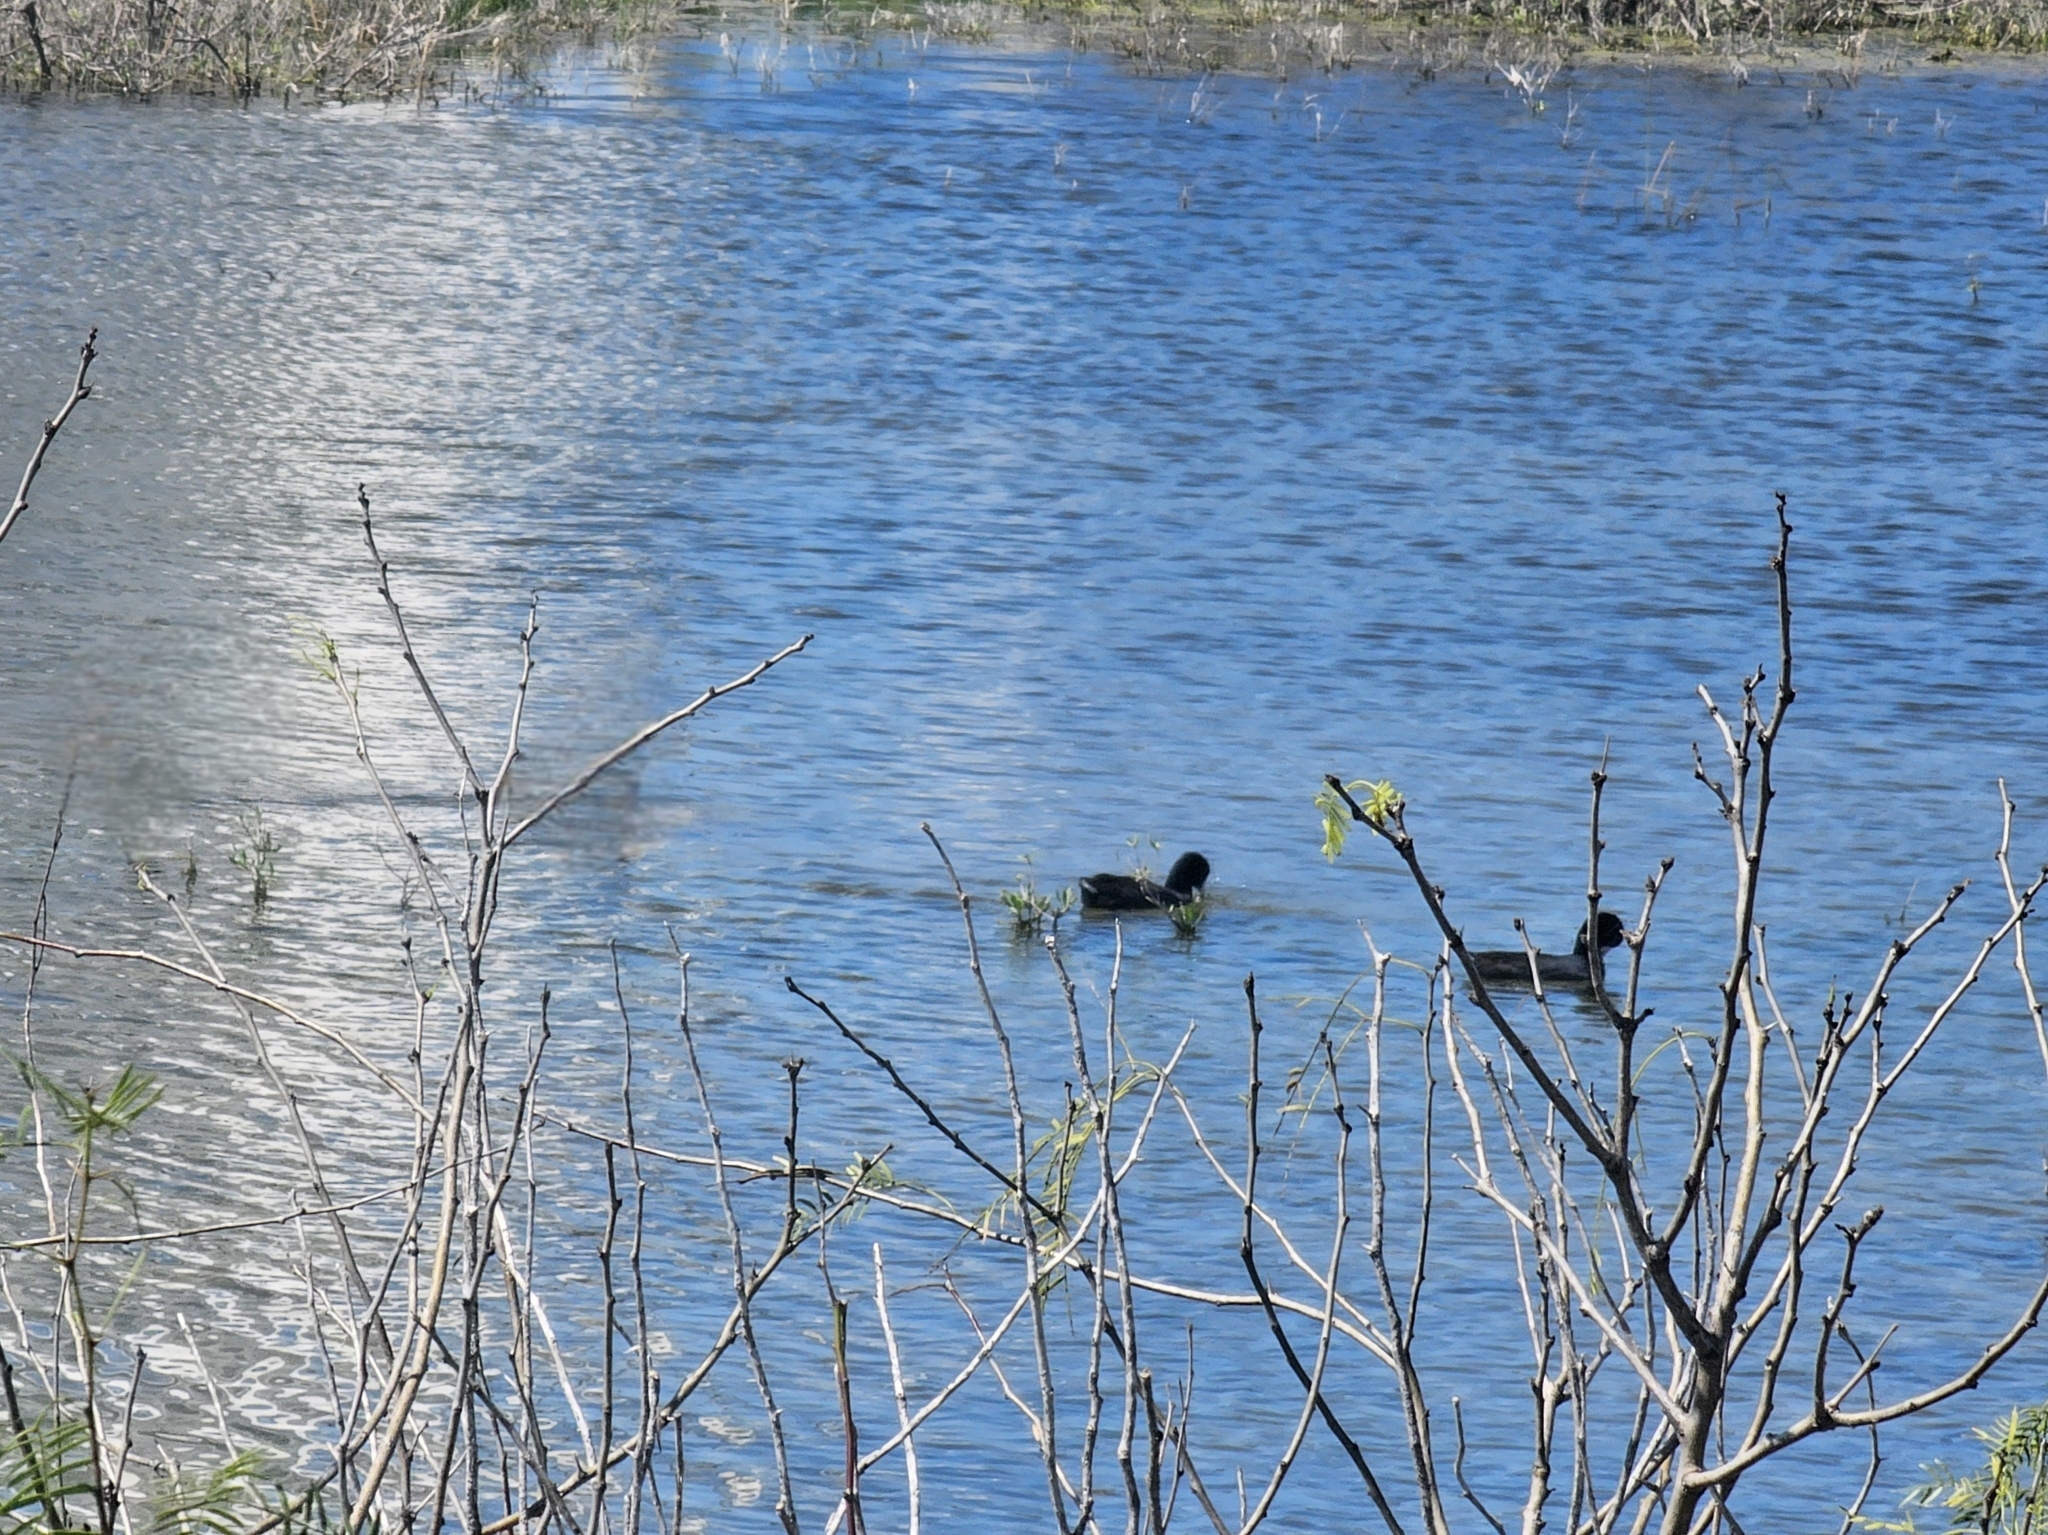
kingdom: Animalia
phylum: Chordata
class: Aves
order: Gruiformes
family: Rallidae
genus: Fulica
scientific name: Fulica americana
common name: American coot
